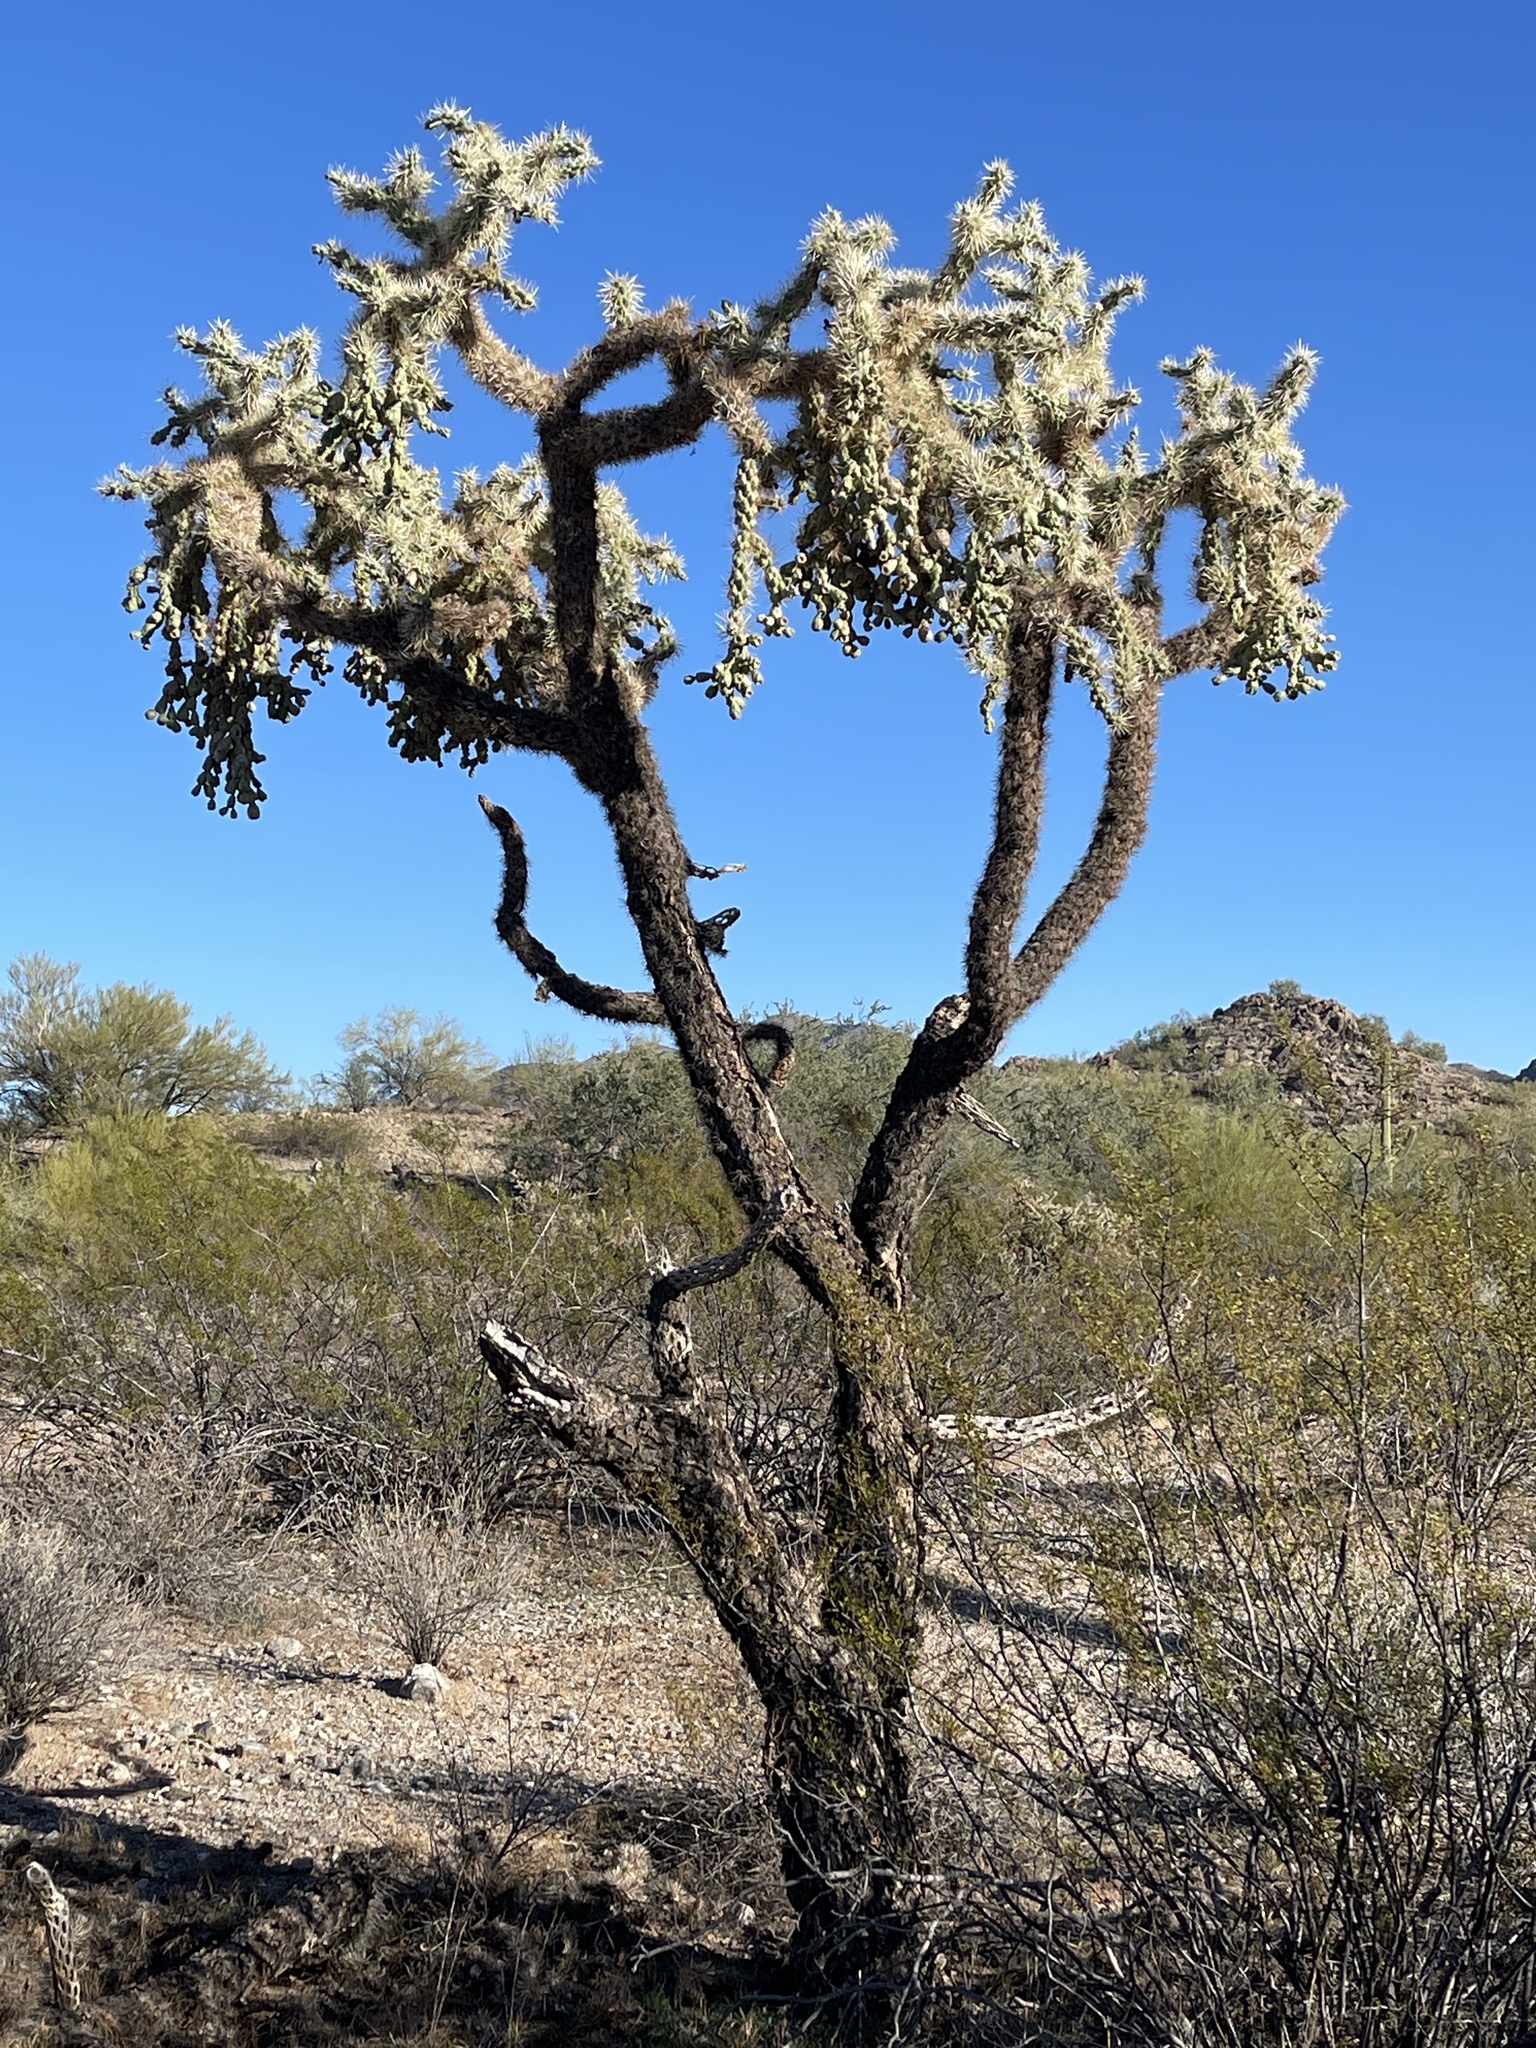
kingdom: Plantae
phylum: Tracheophyta
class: Magnoliopsida
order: Caryophyllales
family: Cactaceae
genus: Cylindropuntia
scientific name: Cylindropuntia fulgida
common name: Jumping cholla
